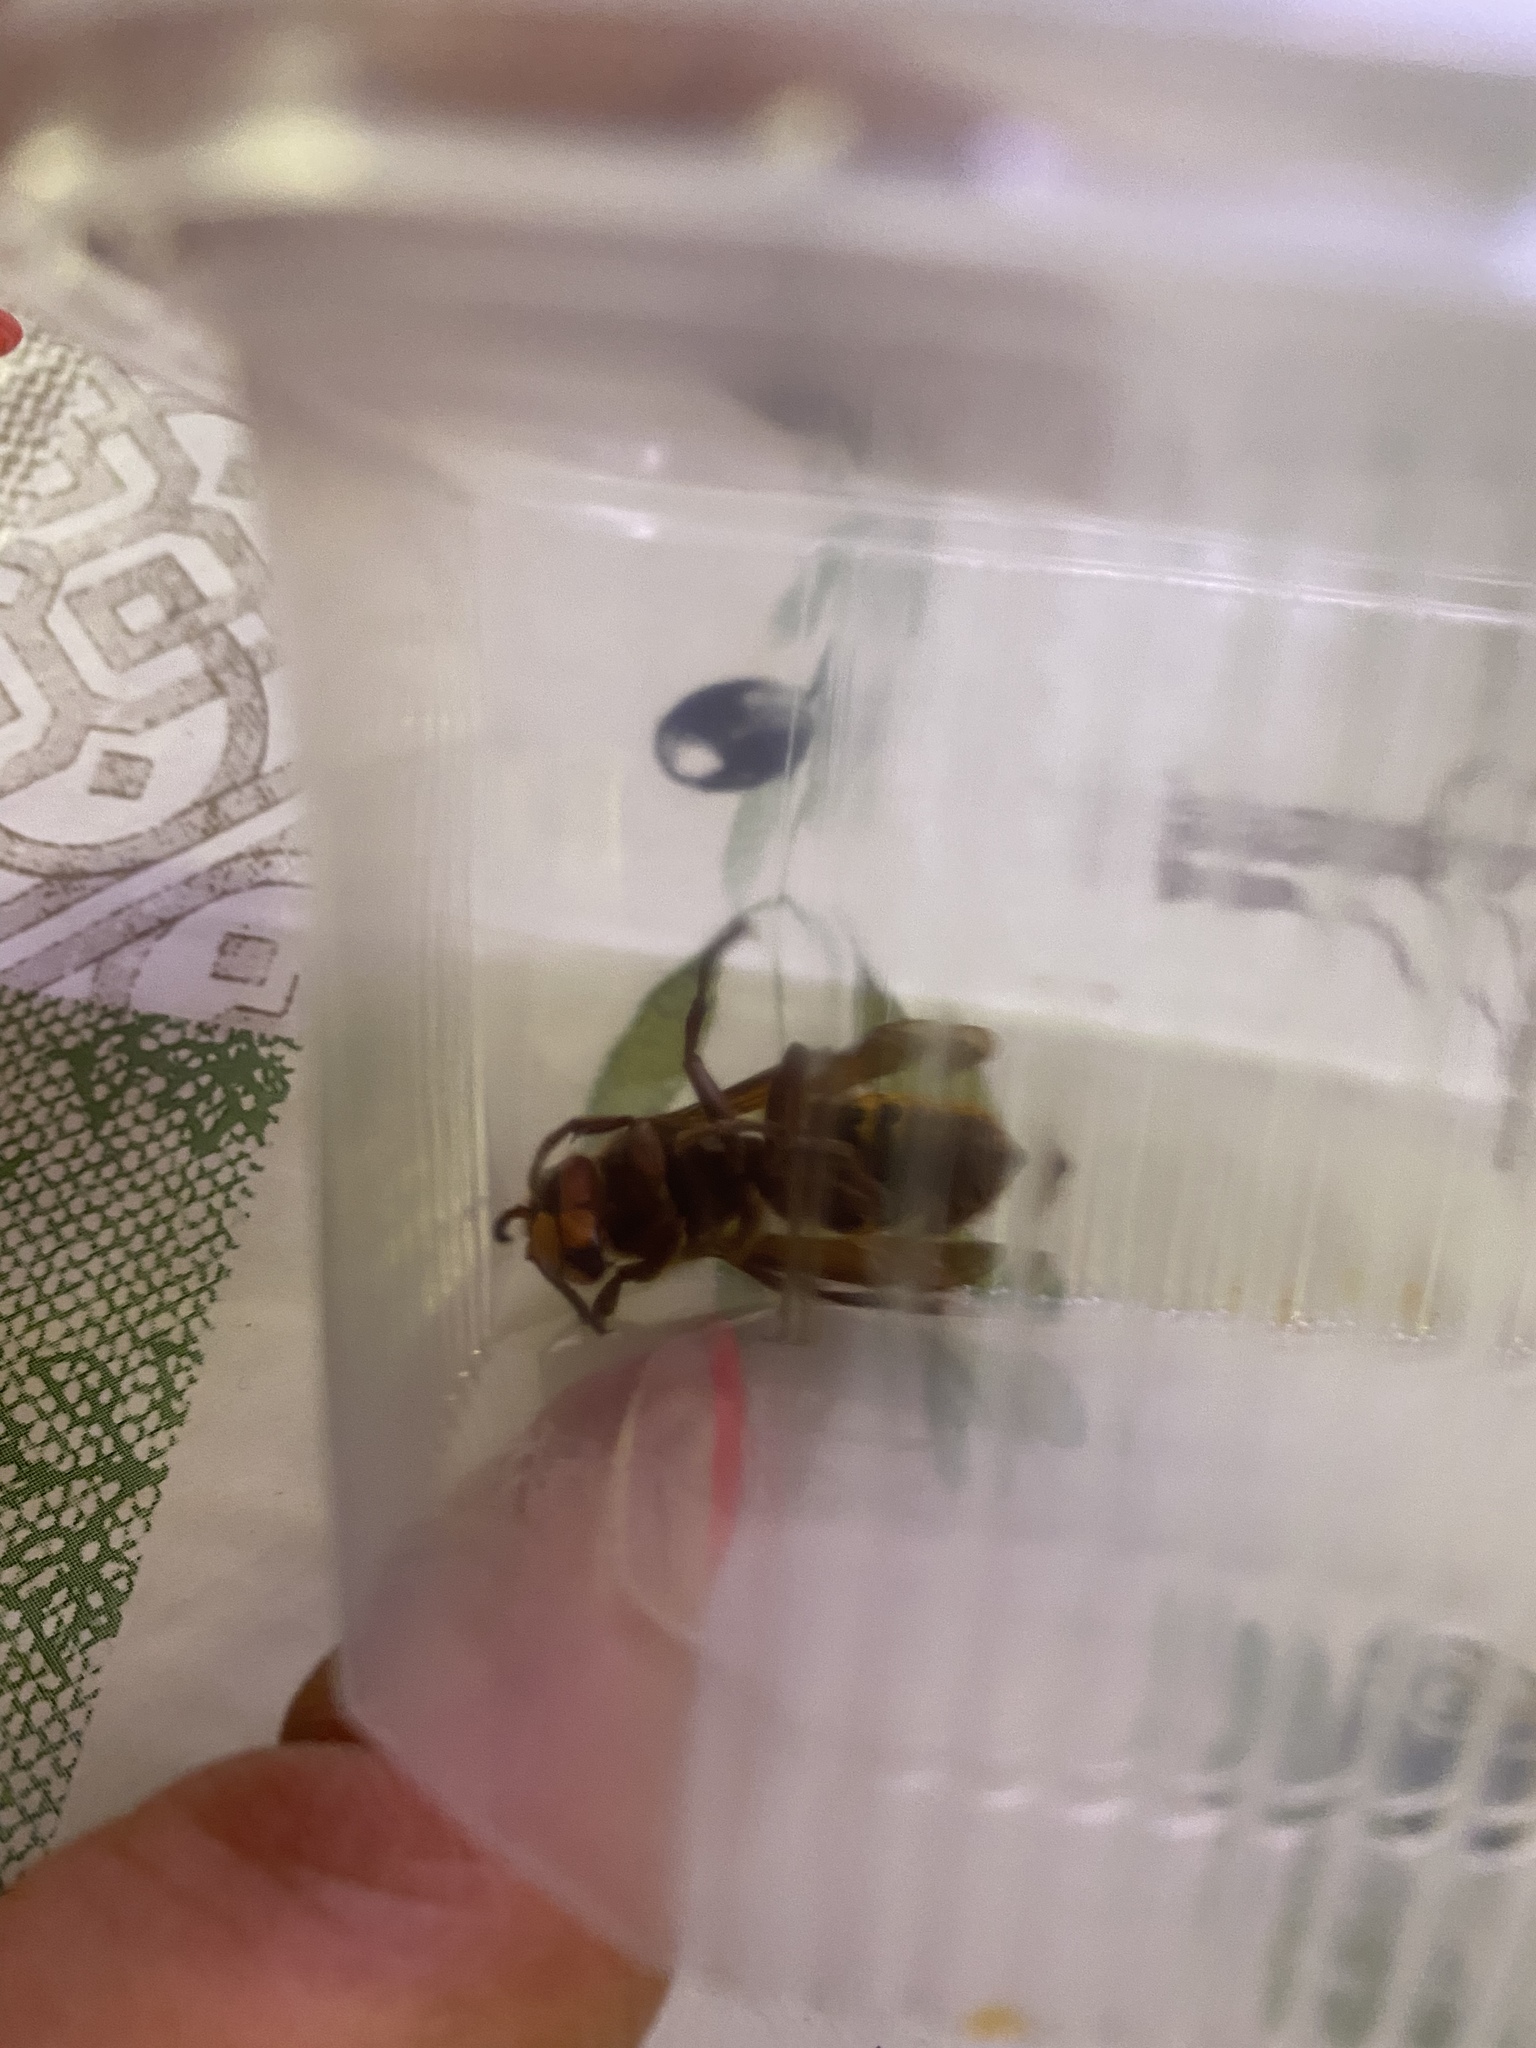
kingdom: Animalia
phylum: Arthropoda
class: Insecta
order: Hymenoptera
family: Vespidae
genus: Vespa
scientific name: Vespa crabro
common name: Hornet
